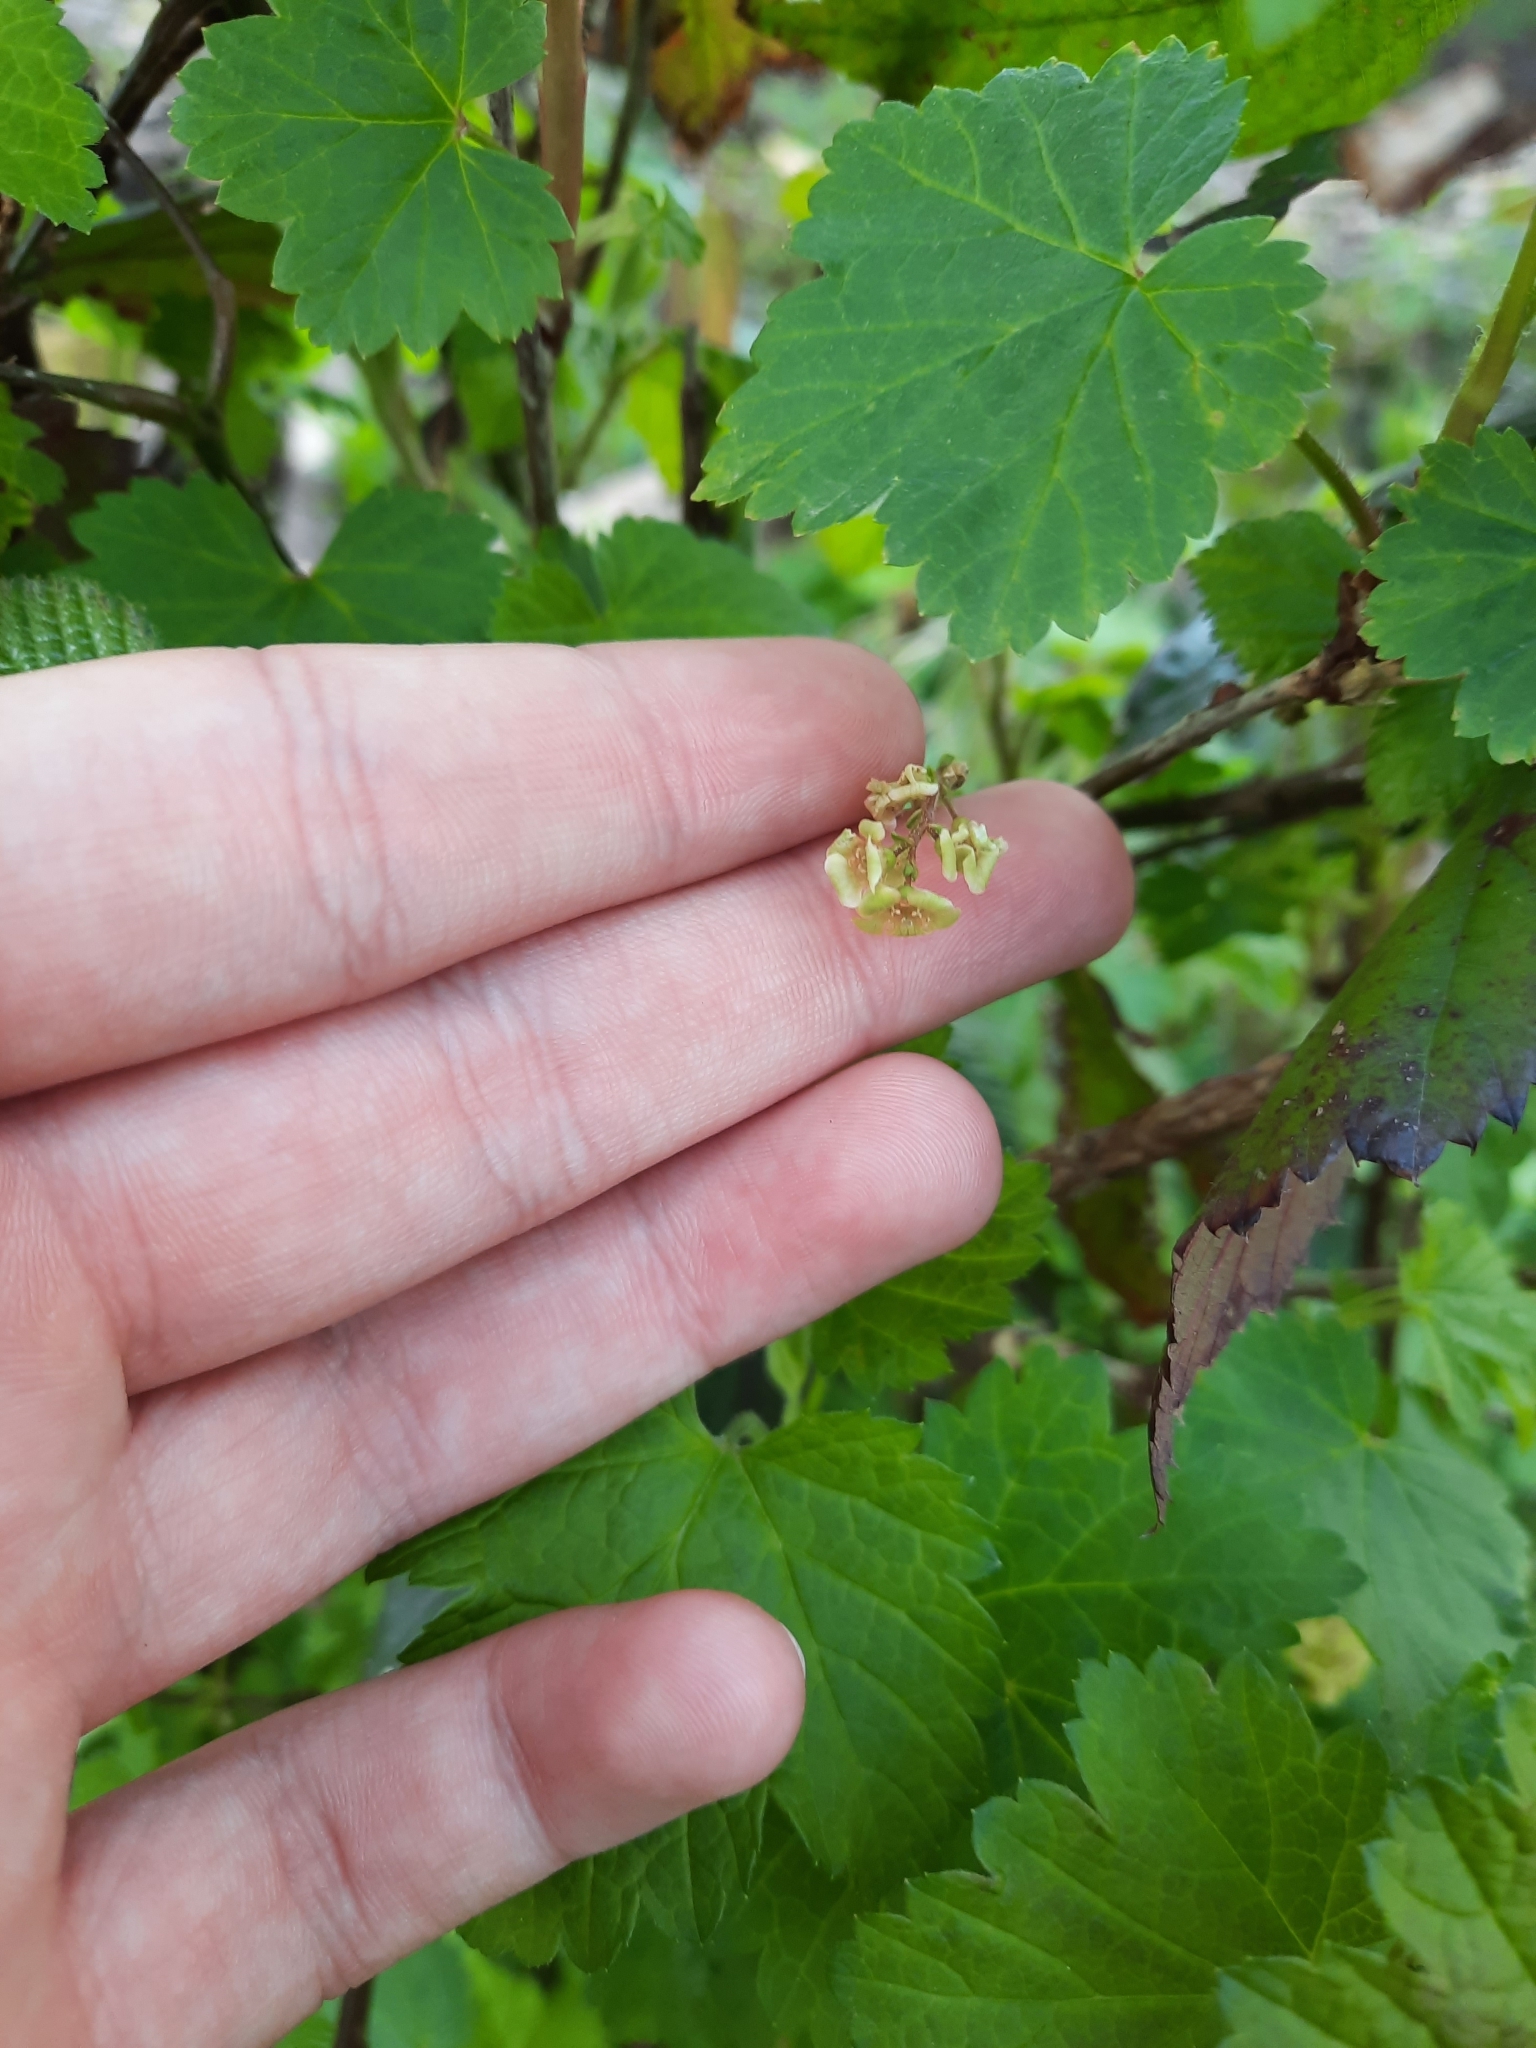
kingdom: Plantae
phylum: Tracheophyta
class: Magnoliopsida
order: Saxifragales
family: Grossulariaceae
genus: Ribes
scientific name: Ribes rubrum
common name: Red currant
